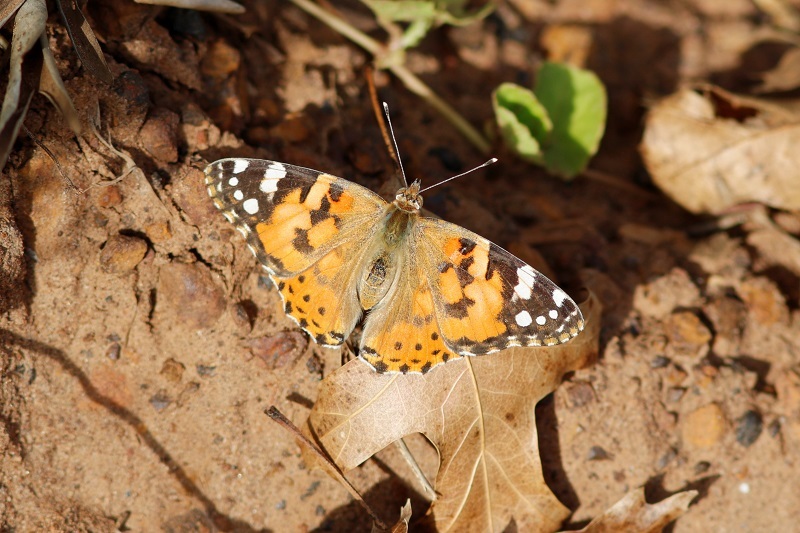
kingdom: Animalia
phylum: Arthropoda
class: Insecta
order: Lepidoptera
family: Nymphalidae
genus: Vanessa
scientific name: Vanessa cardui
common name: Painted lady
